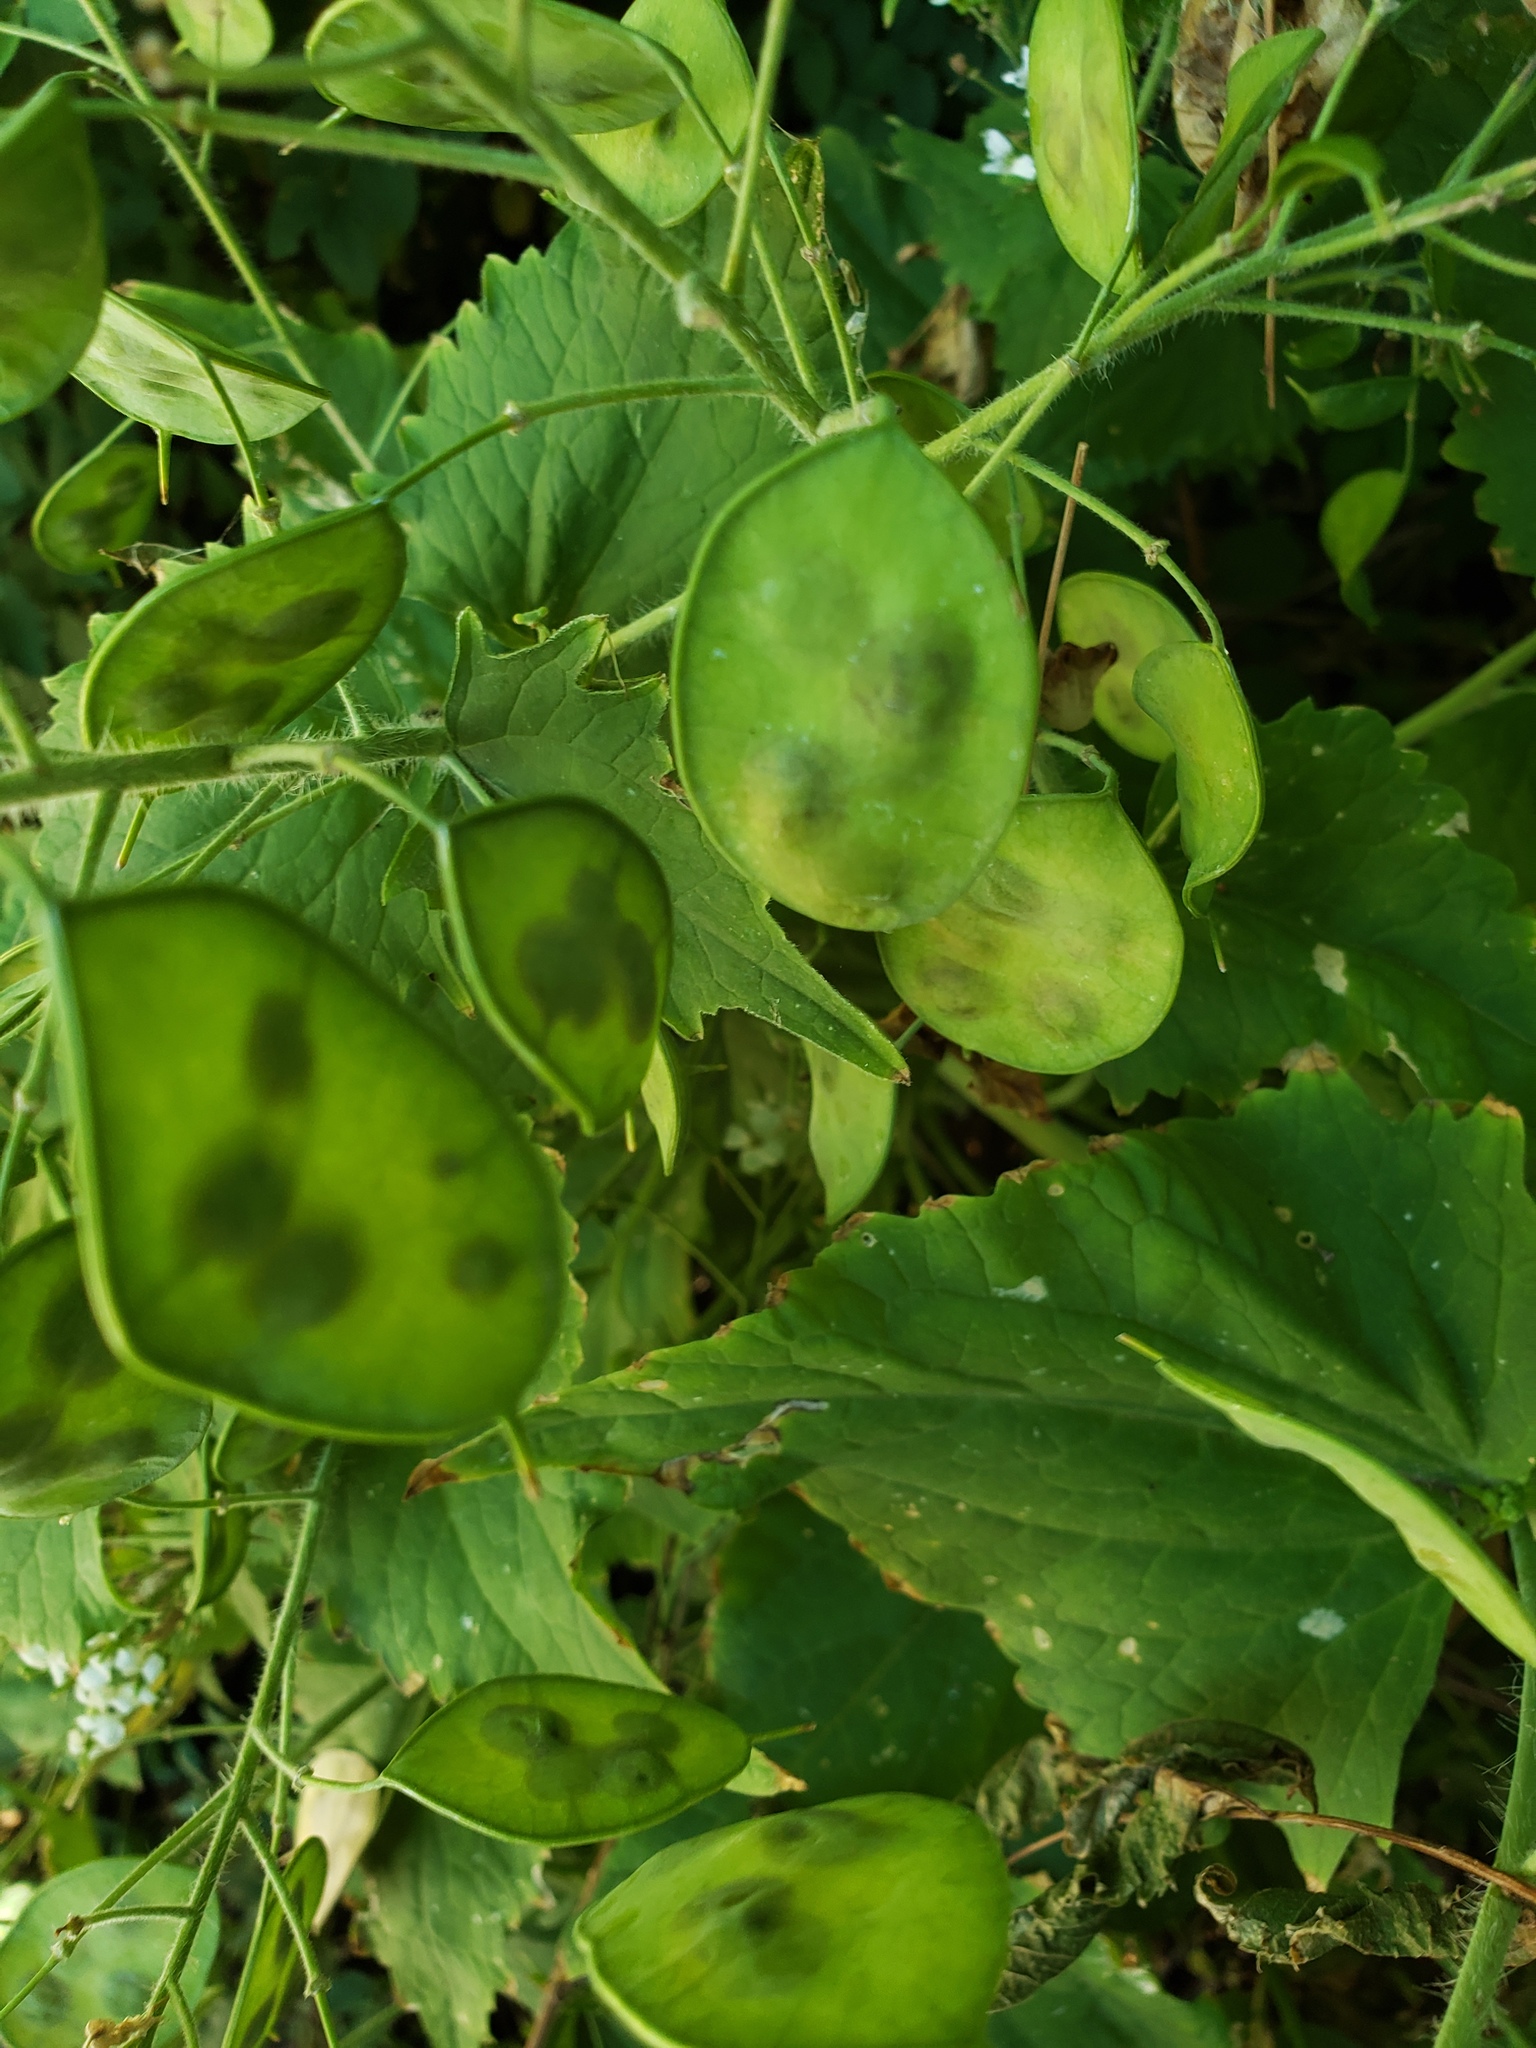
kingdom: Plantae
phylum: Tracheophyta
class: Magnoliopsida
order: Brassicales
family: Brassicaceae
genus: Lunaria
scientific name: Lunaria annua
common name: Honesty
